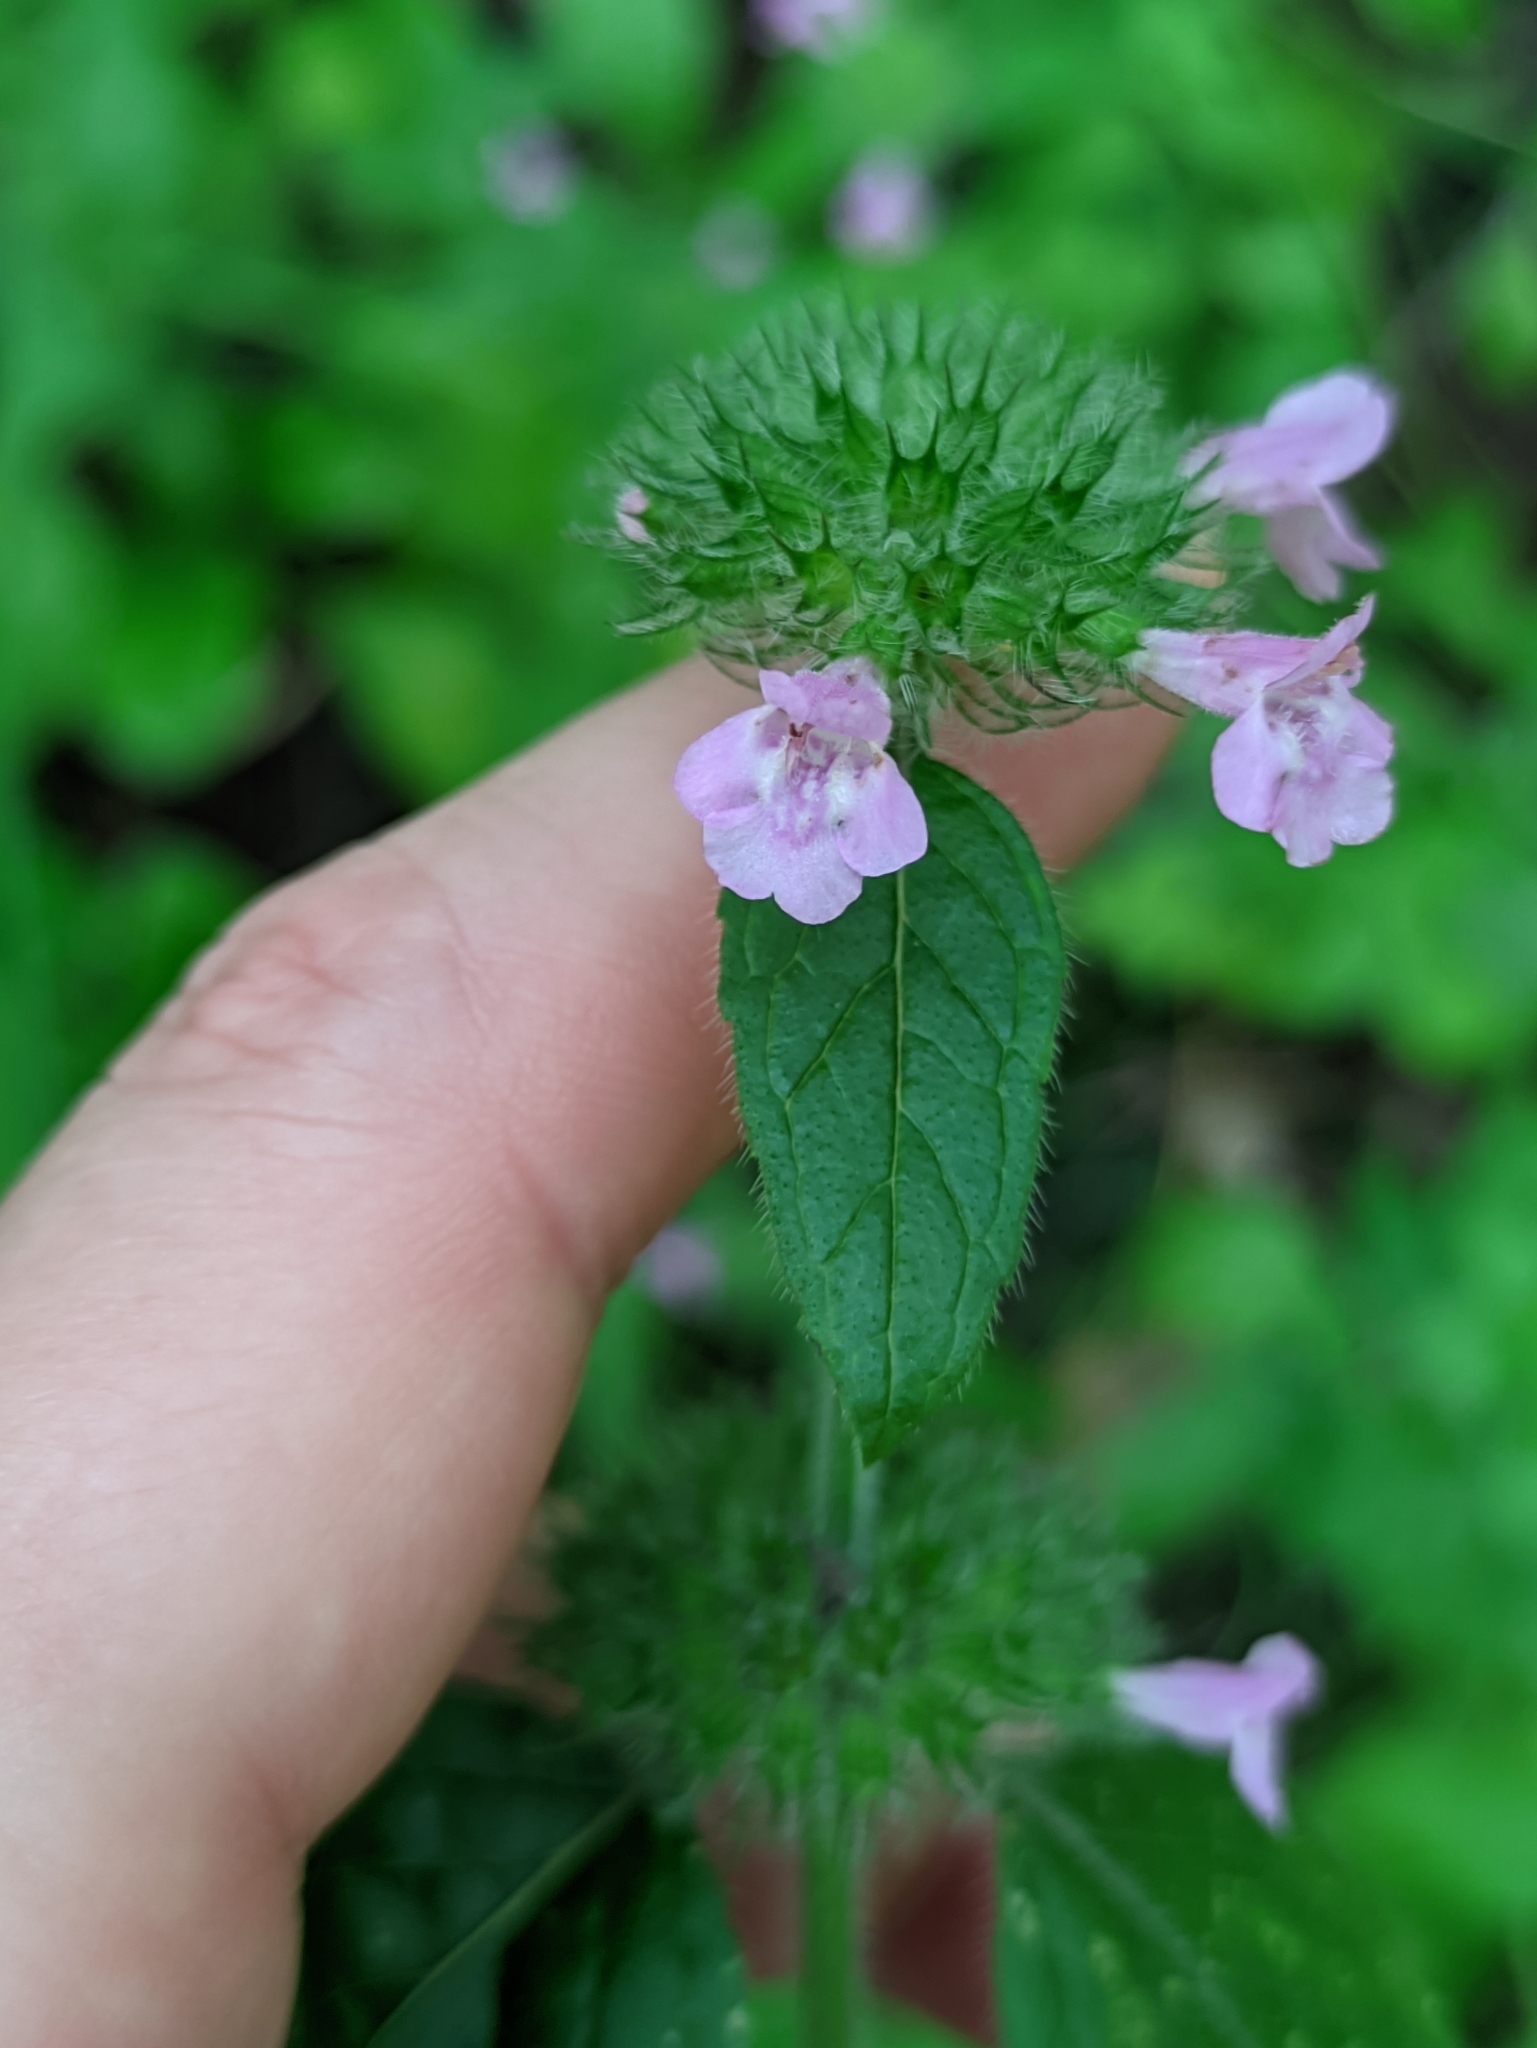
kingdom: Plantae
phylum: Tracheophyta
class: Magnoliopsida
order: Lamiales
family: Lamiaceae
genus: Clinopodium
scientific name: Clinopodium vulgare
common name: Wild basil
